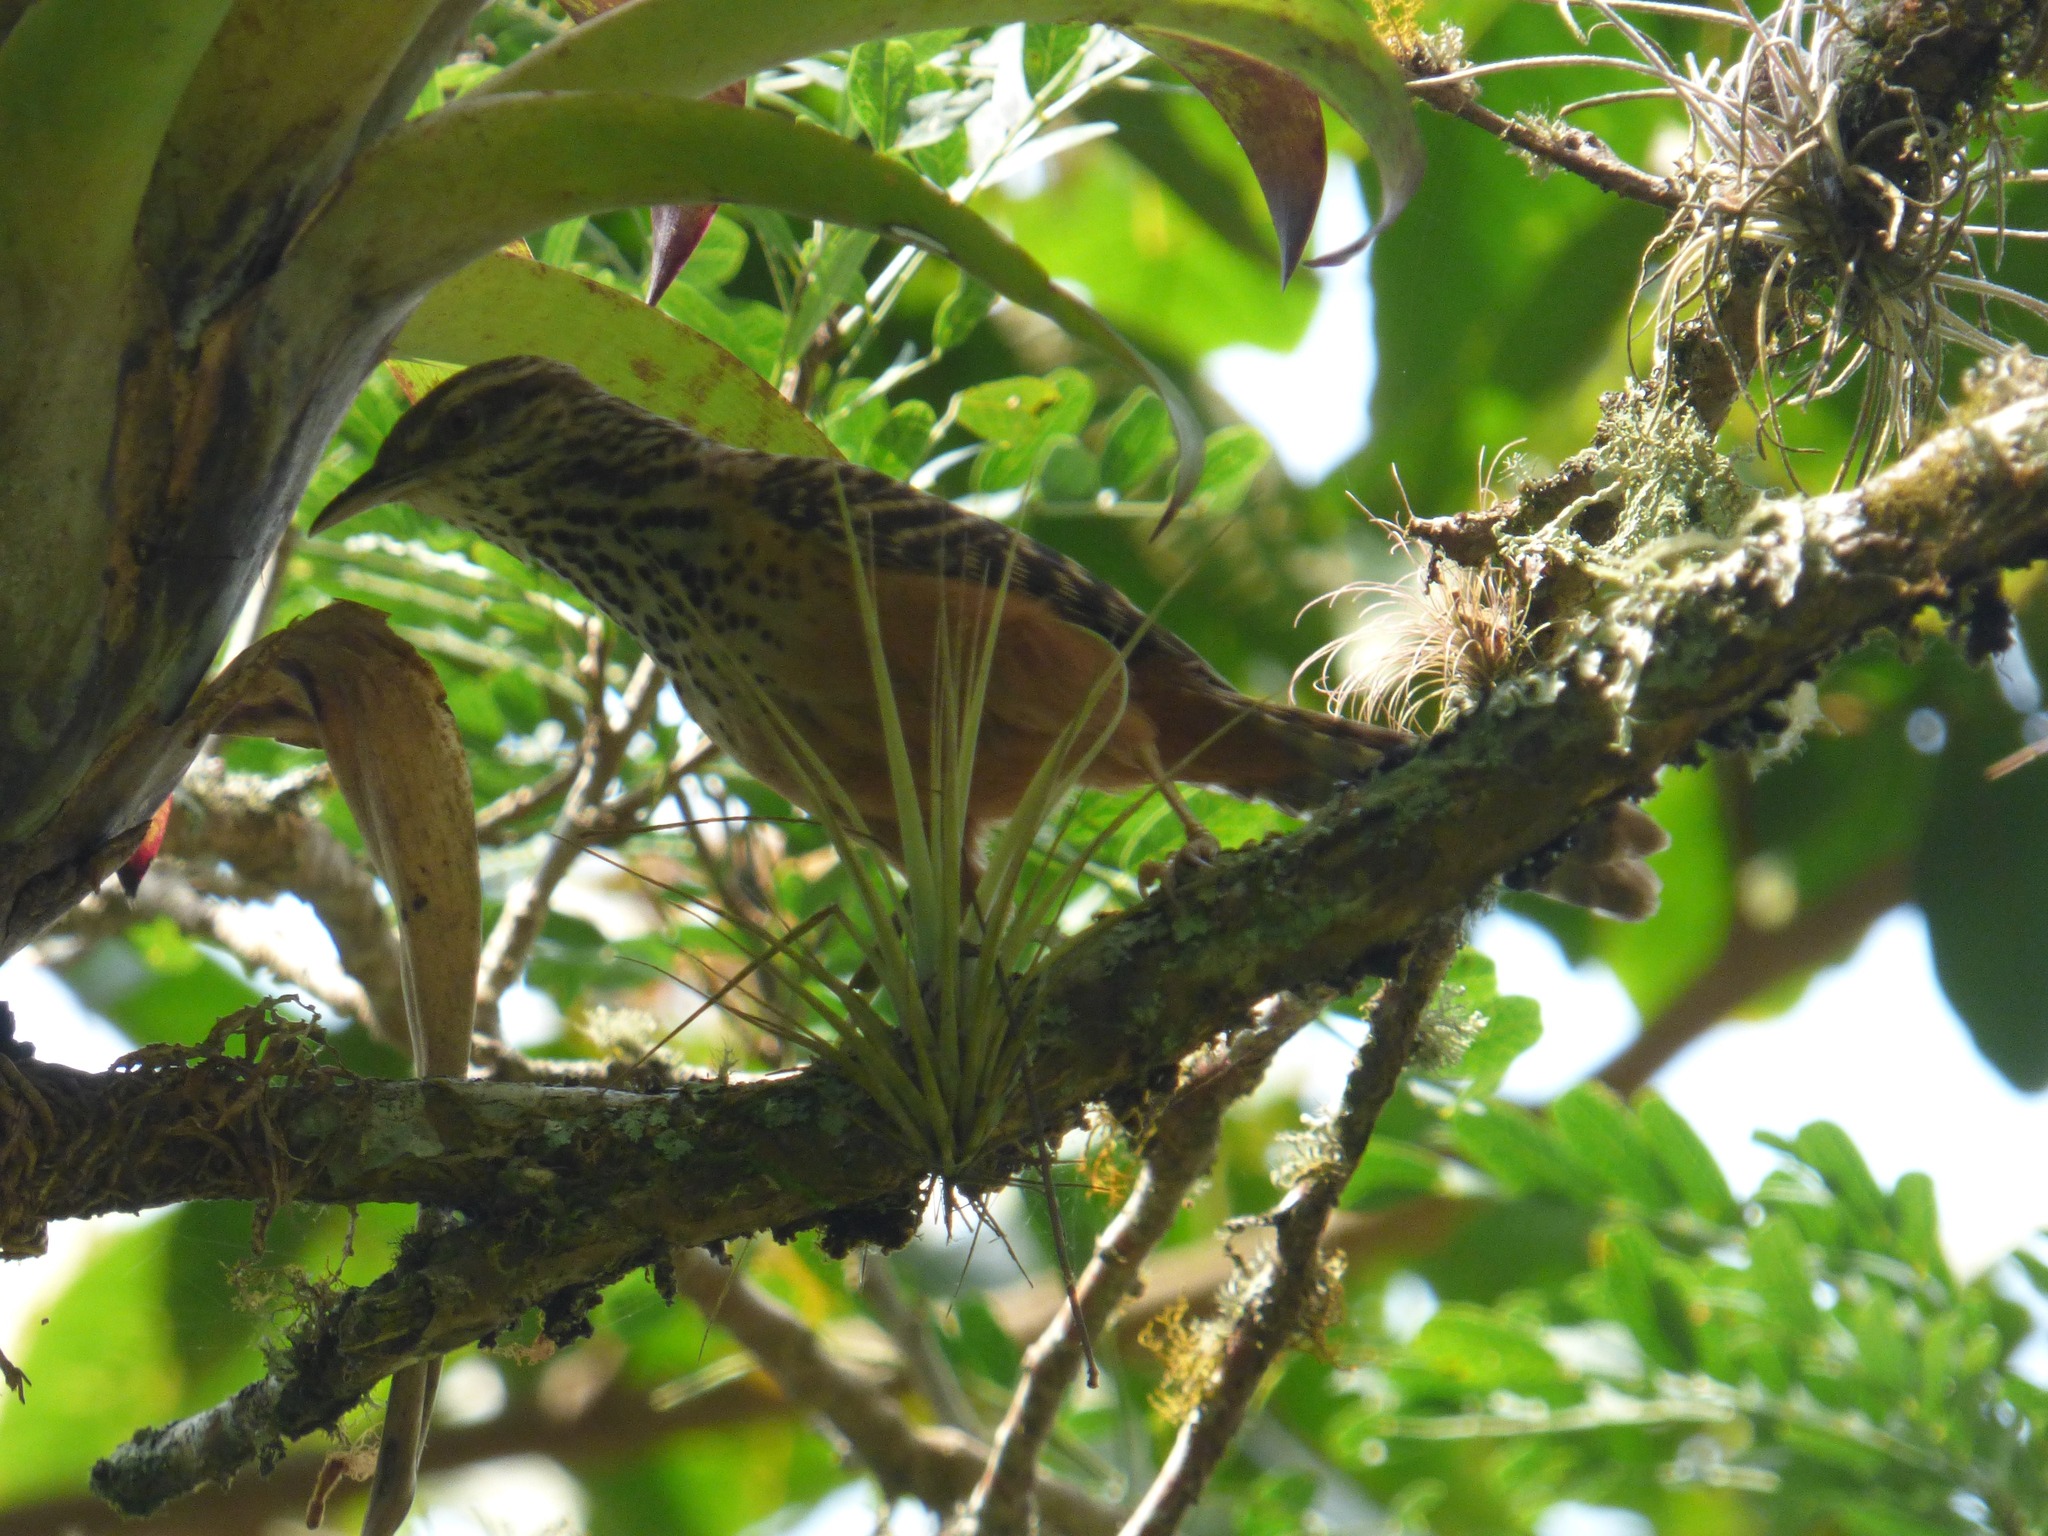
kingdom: Animalia
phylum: Chordata
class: Aves
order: Passeriformes
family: Troglodytidae
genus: Campylorhynchus
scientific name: Campylorhynchus zonatus
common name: Band-backed wren
